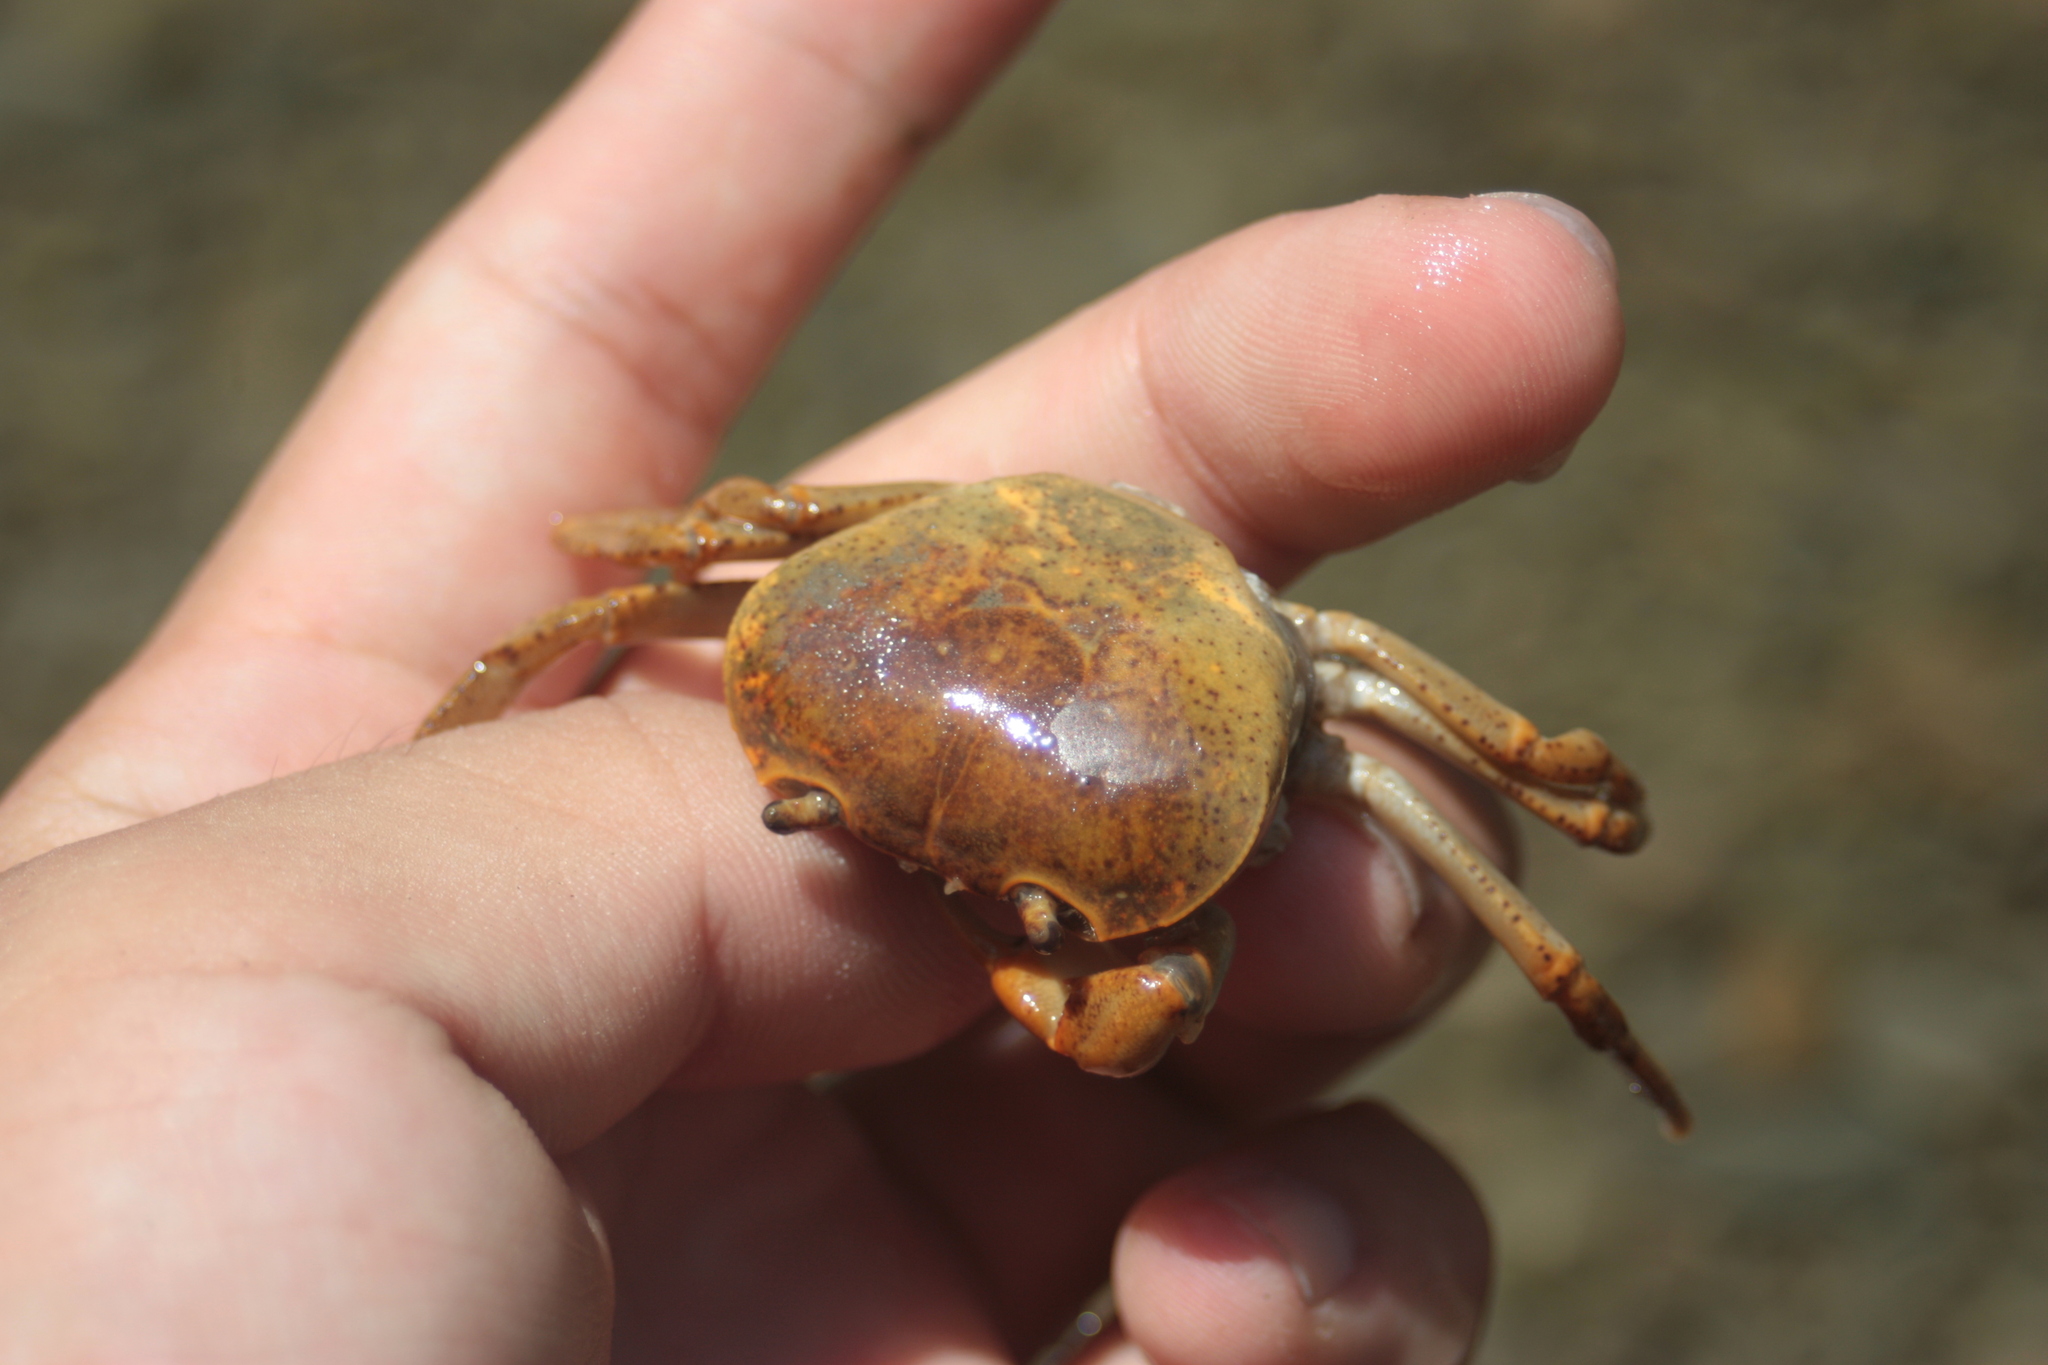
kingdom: Animalia
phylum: Arthropoda
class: Malacostraca
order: Decapoda
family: Potamidae
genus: Geothelphusa
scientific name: Geothelphusa tsayae
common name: She crab
